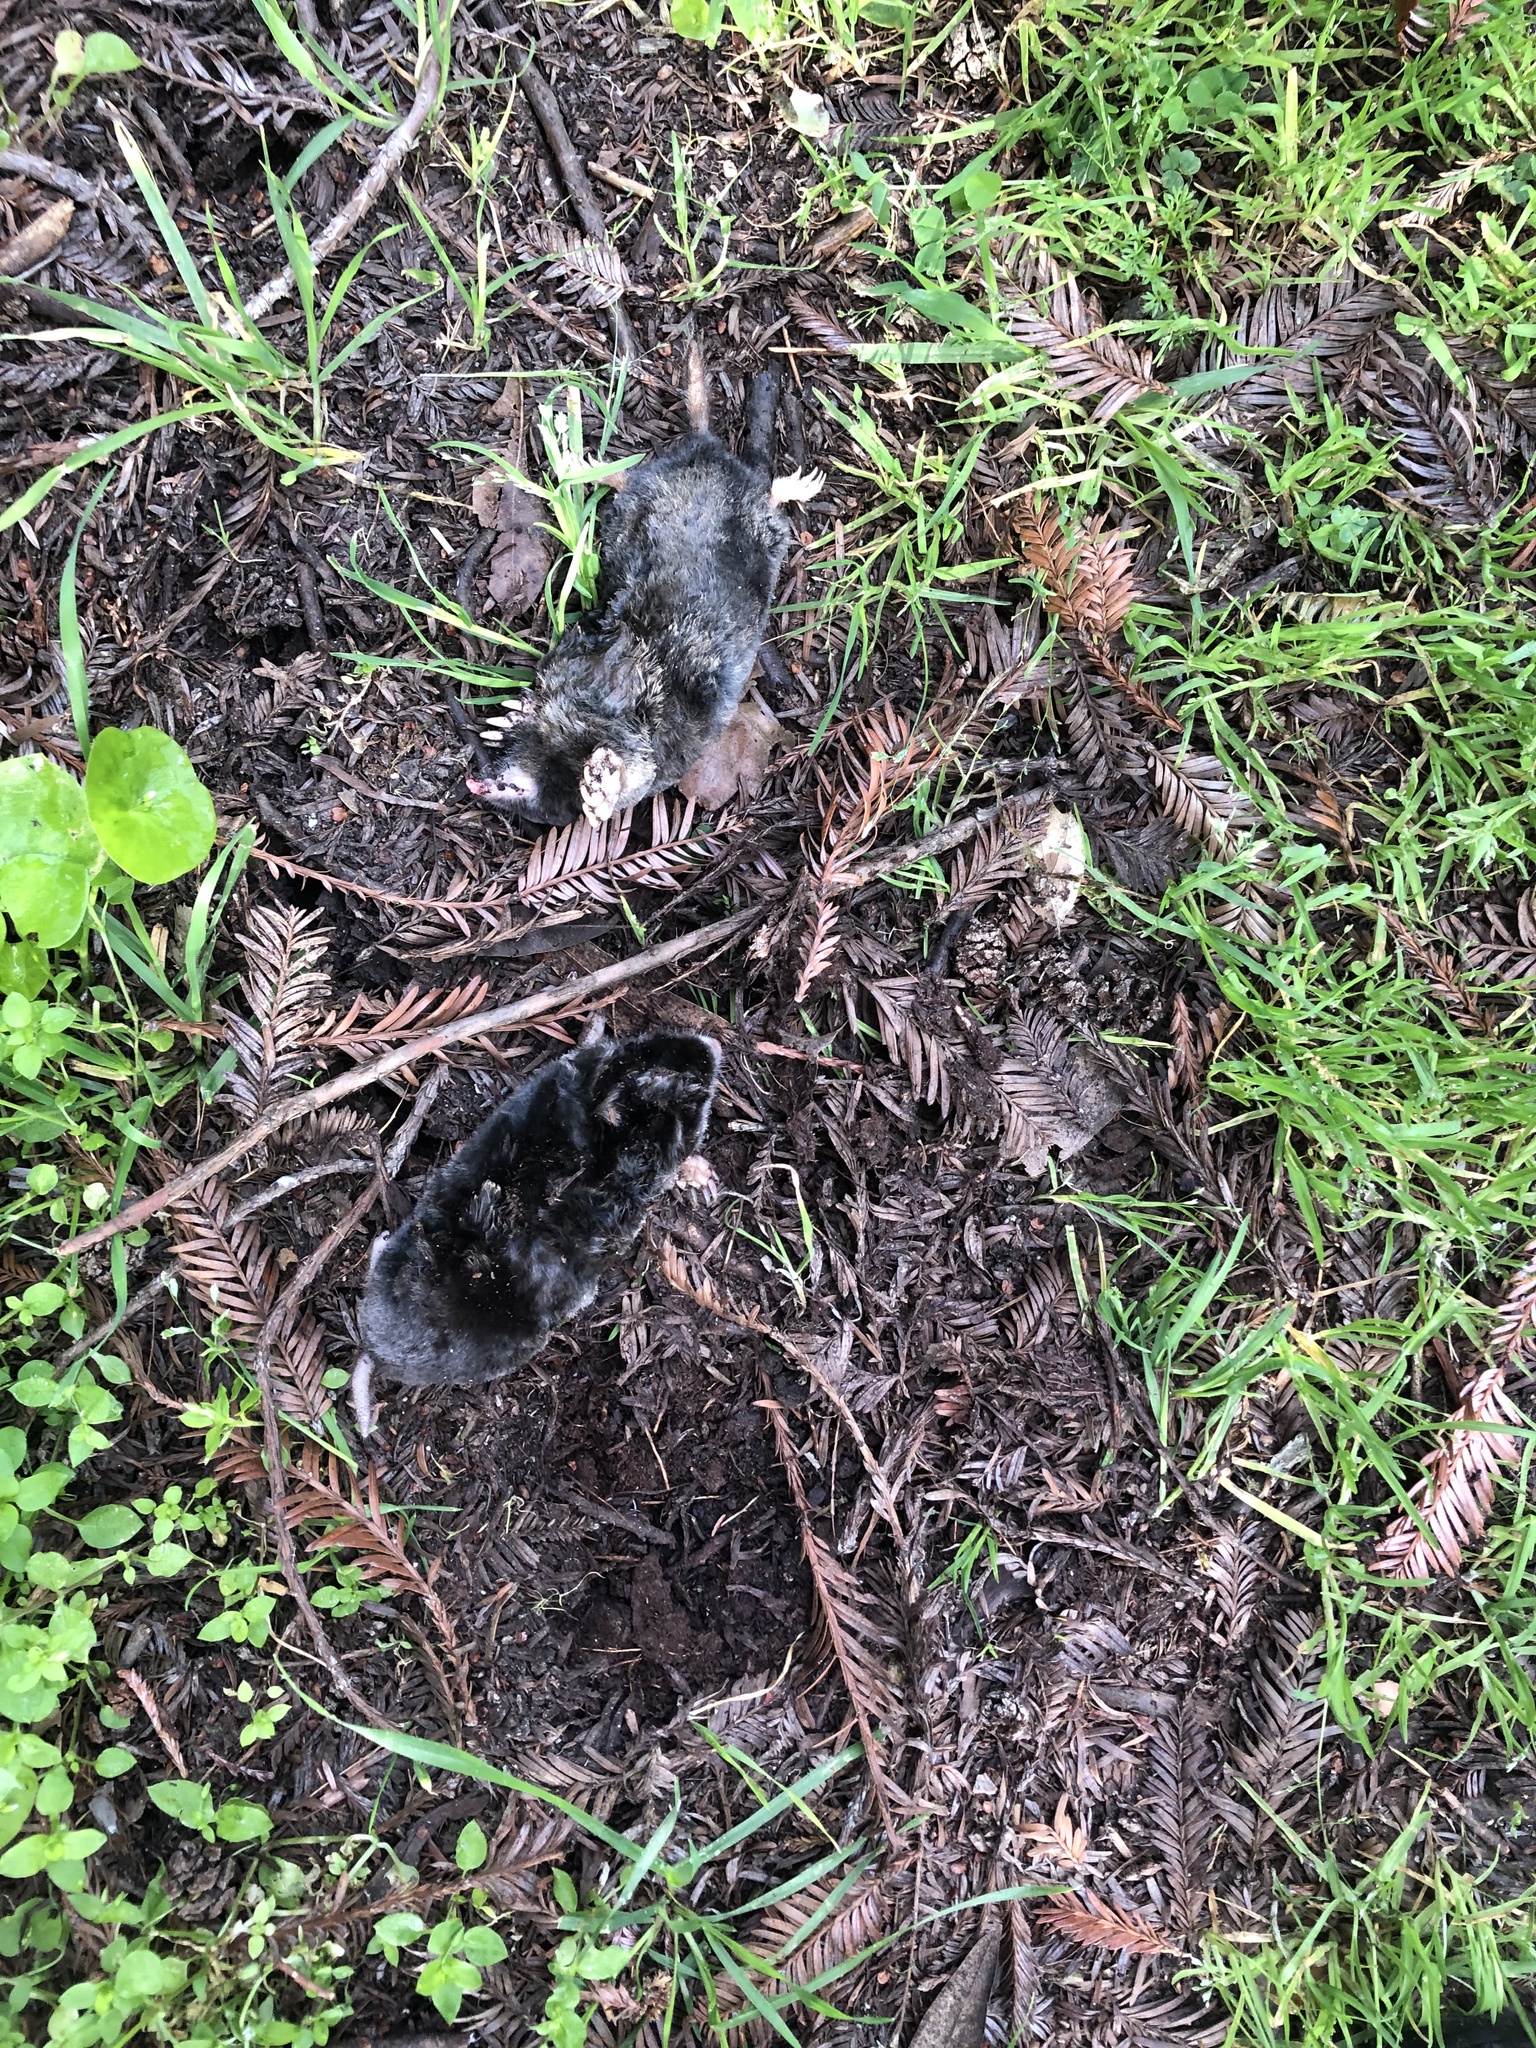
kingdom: Animalia
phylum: Chordata
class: Mammalia
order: Soricomorpha
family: Talpidae
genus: Scapanus
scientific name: Scapanus latimanus
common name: Broad-footed mole
